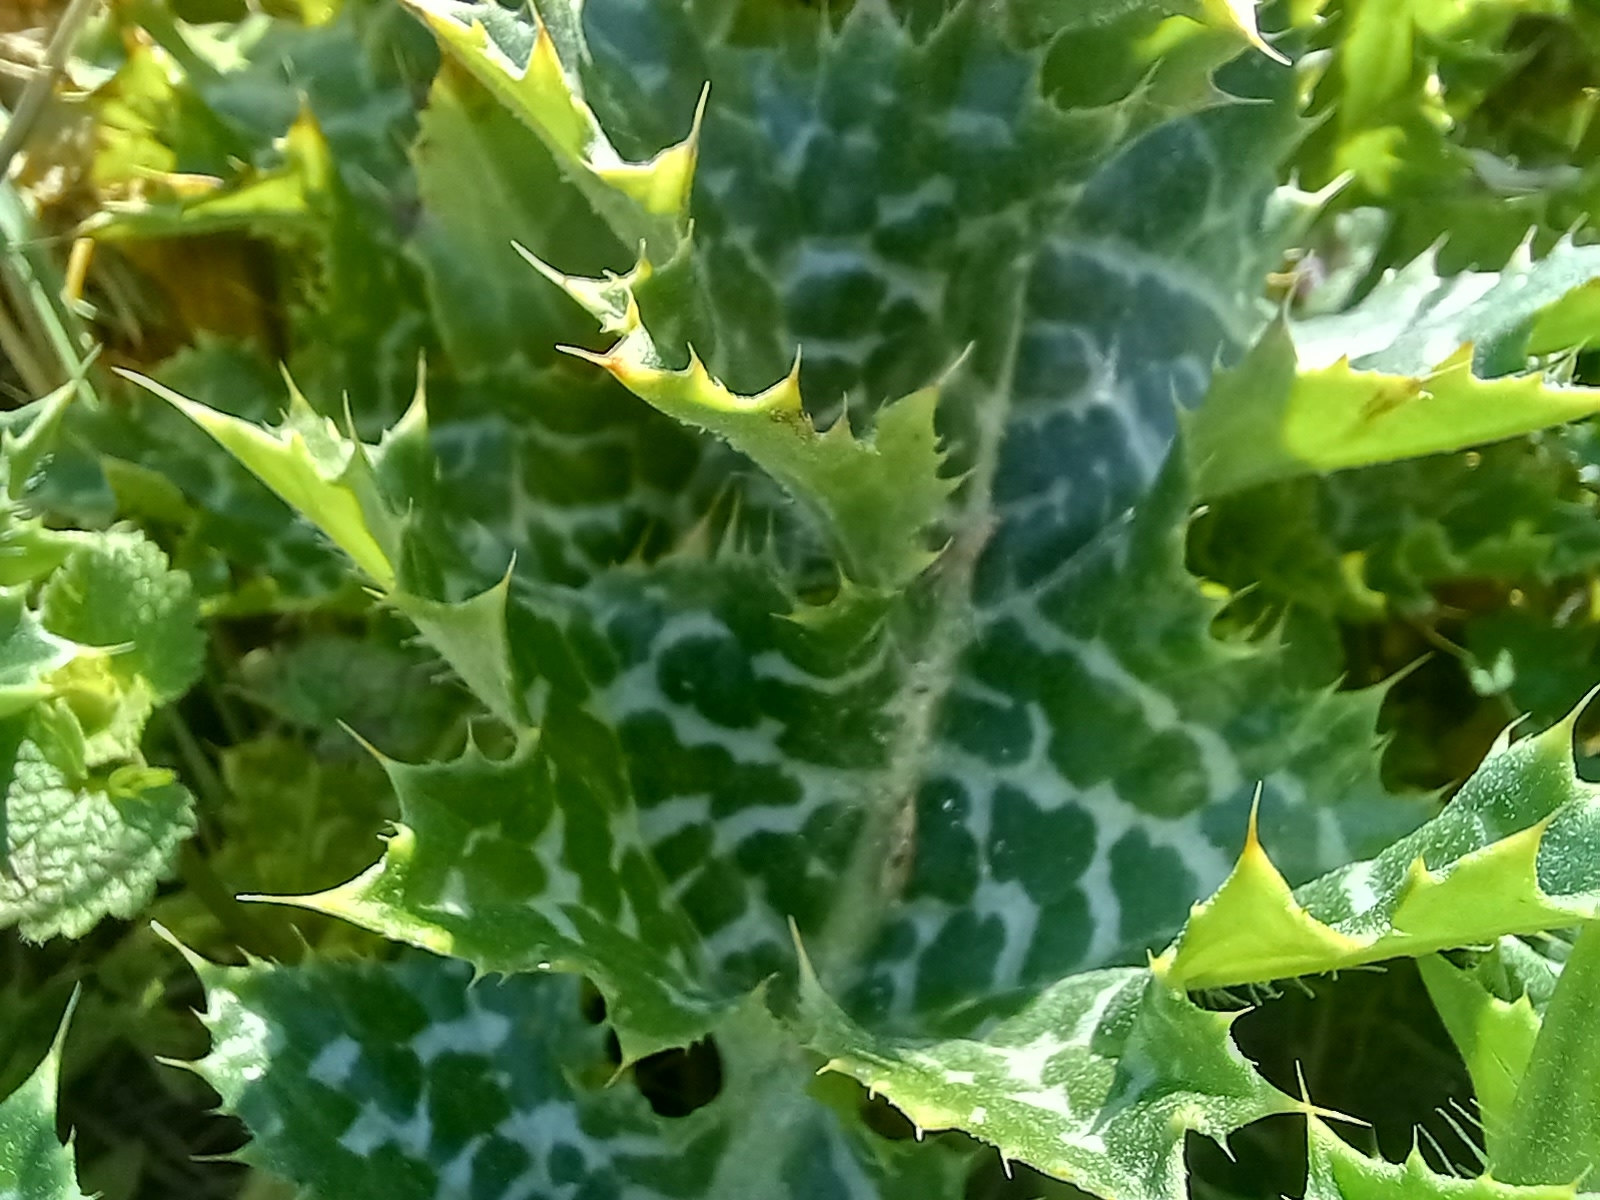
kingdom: Plantae
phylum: Tracheophyta
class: Magnoliopsida
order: Asterales
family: Asteraceae
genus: Silybum
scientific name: Silybum marianum
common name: Milk thistle
